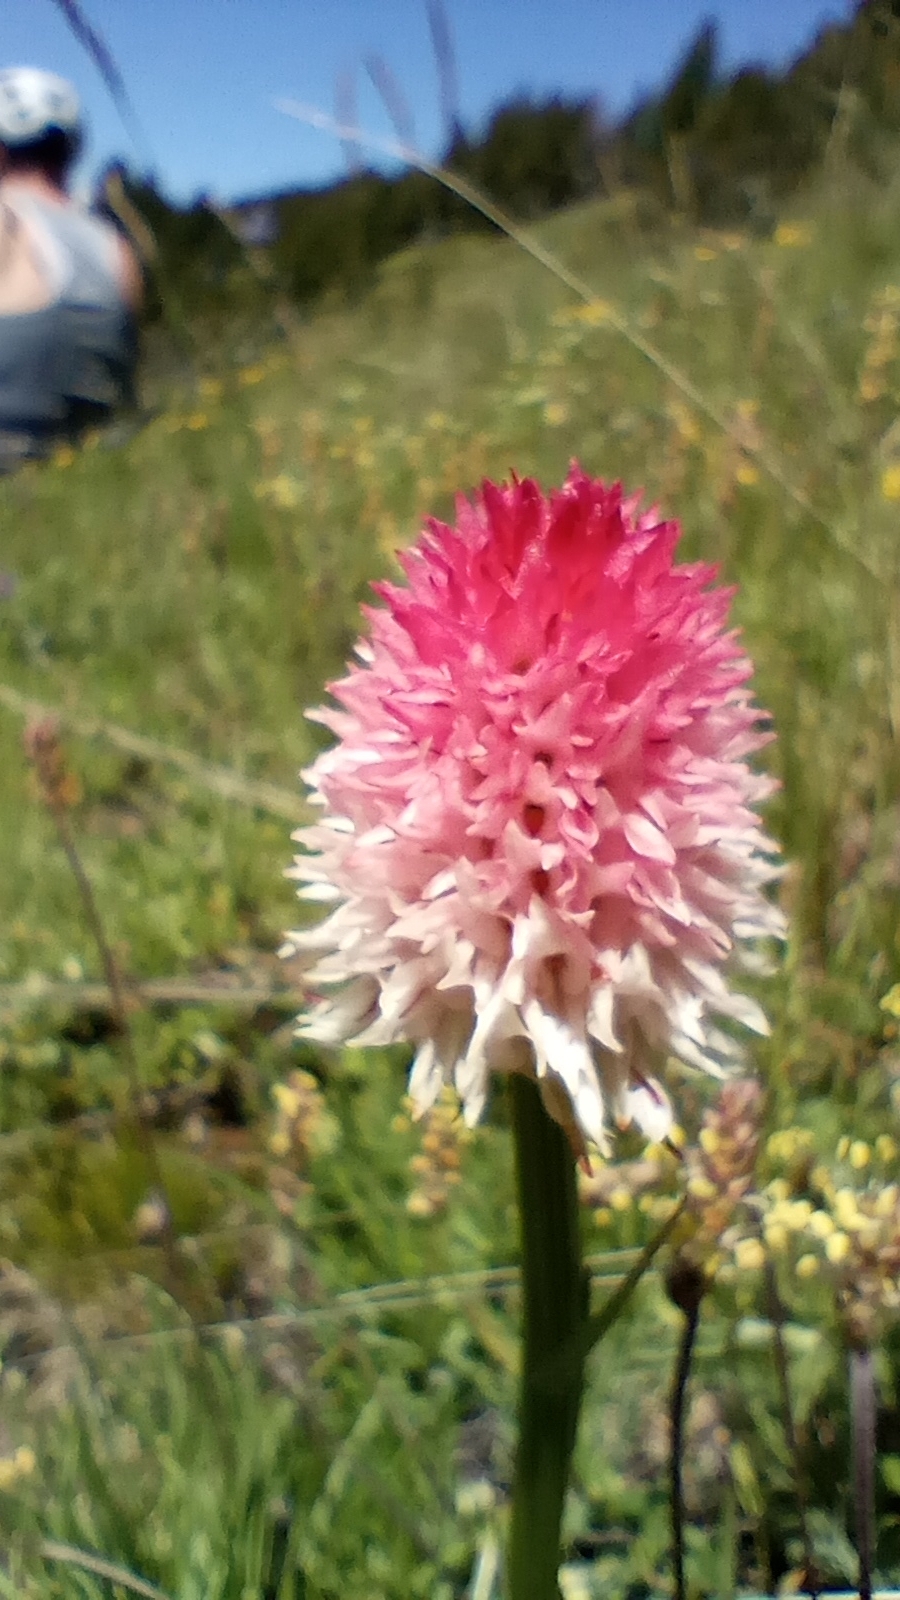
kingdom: Plantae
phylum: Tracheophyta
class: Liliopsida
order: Asparagales
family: Orchidaceae
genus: Gymnadenia
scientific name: Gymnadenia corneliana
